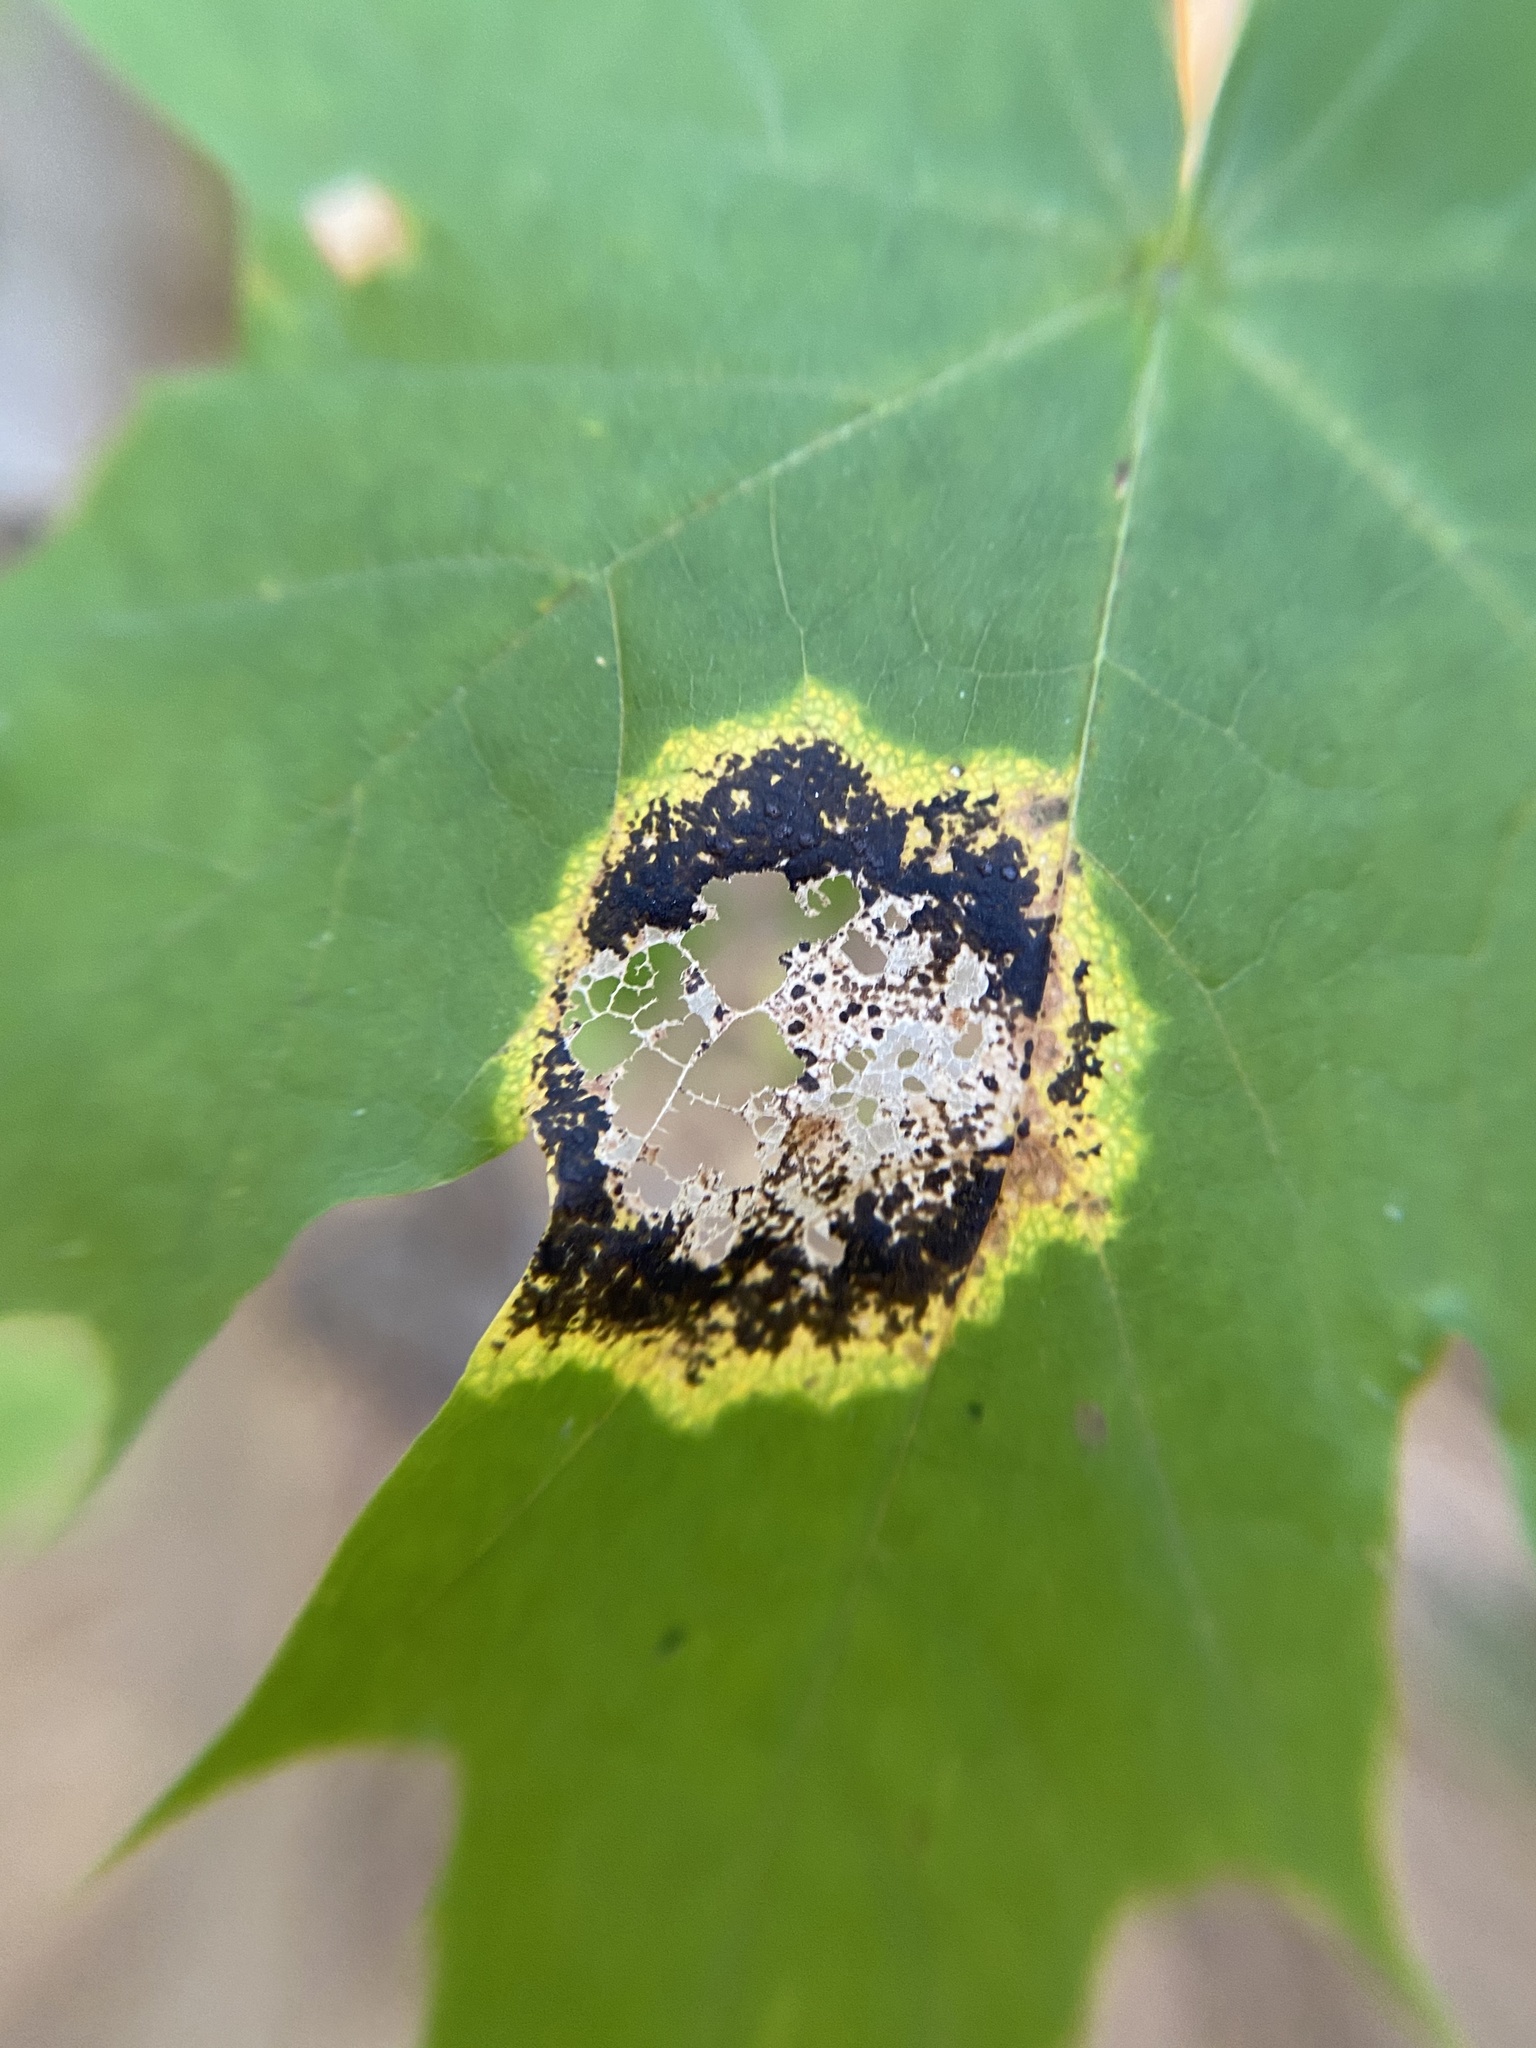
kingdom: Fungi
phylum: Ascomycota
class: Leotiomycetes
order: Rhytismatales
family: Rhytismataceae
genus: Rhytisma
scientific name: Rhytisma acerinum
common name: European tar spot
